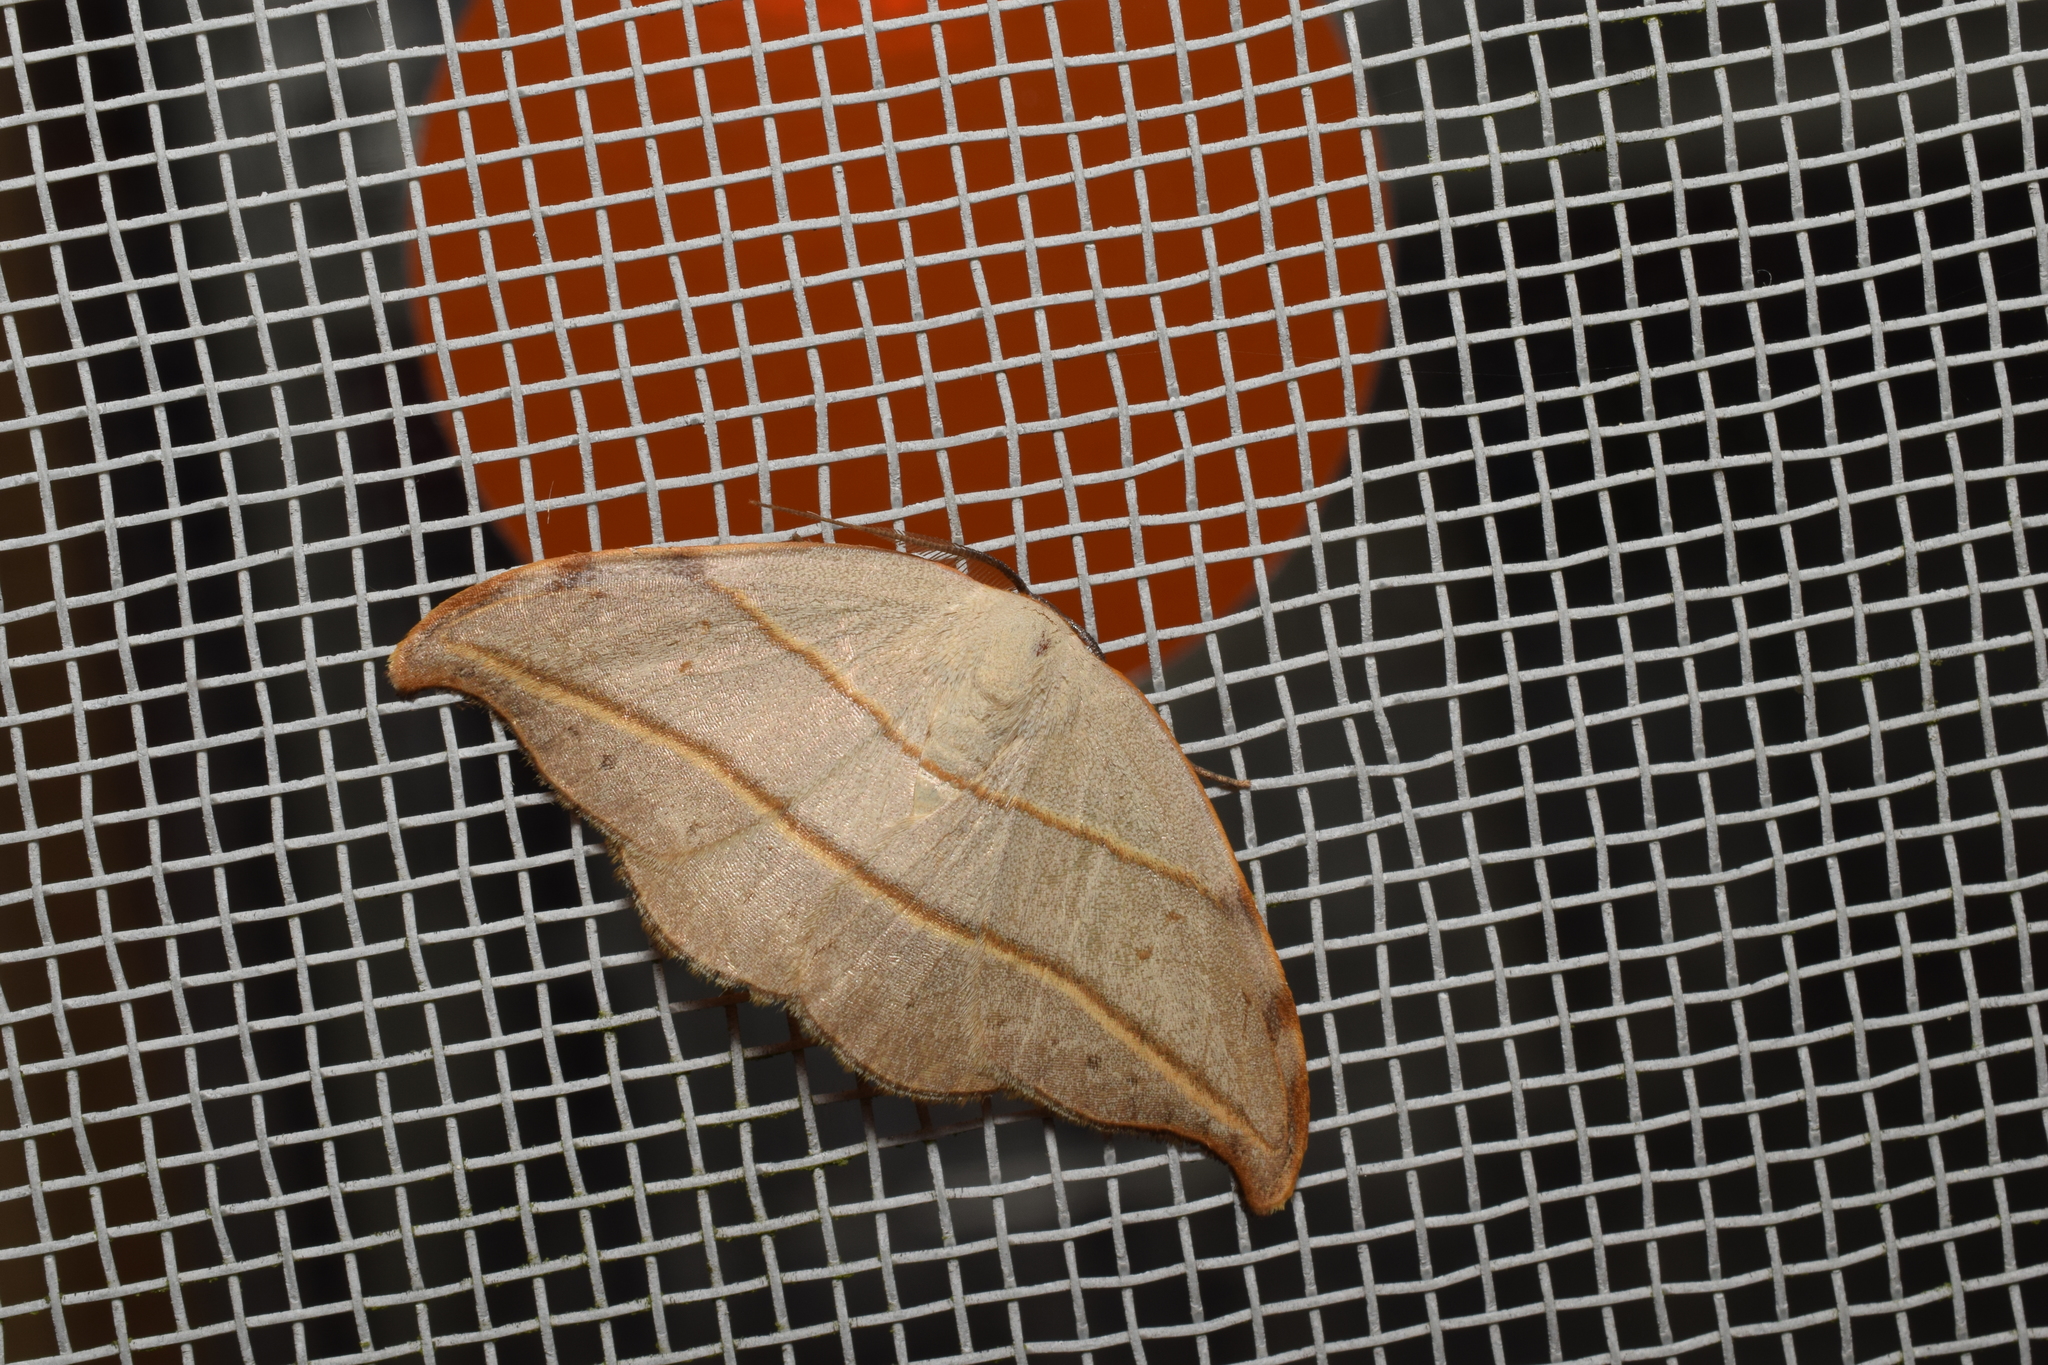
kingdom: Animalia
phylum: Arthropoda
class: Insecta
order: Lepidoptera
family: Drepanidae
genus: Nordstromia
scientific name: Nordstromia japonica
